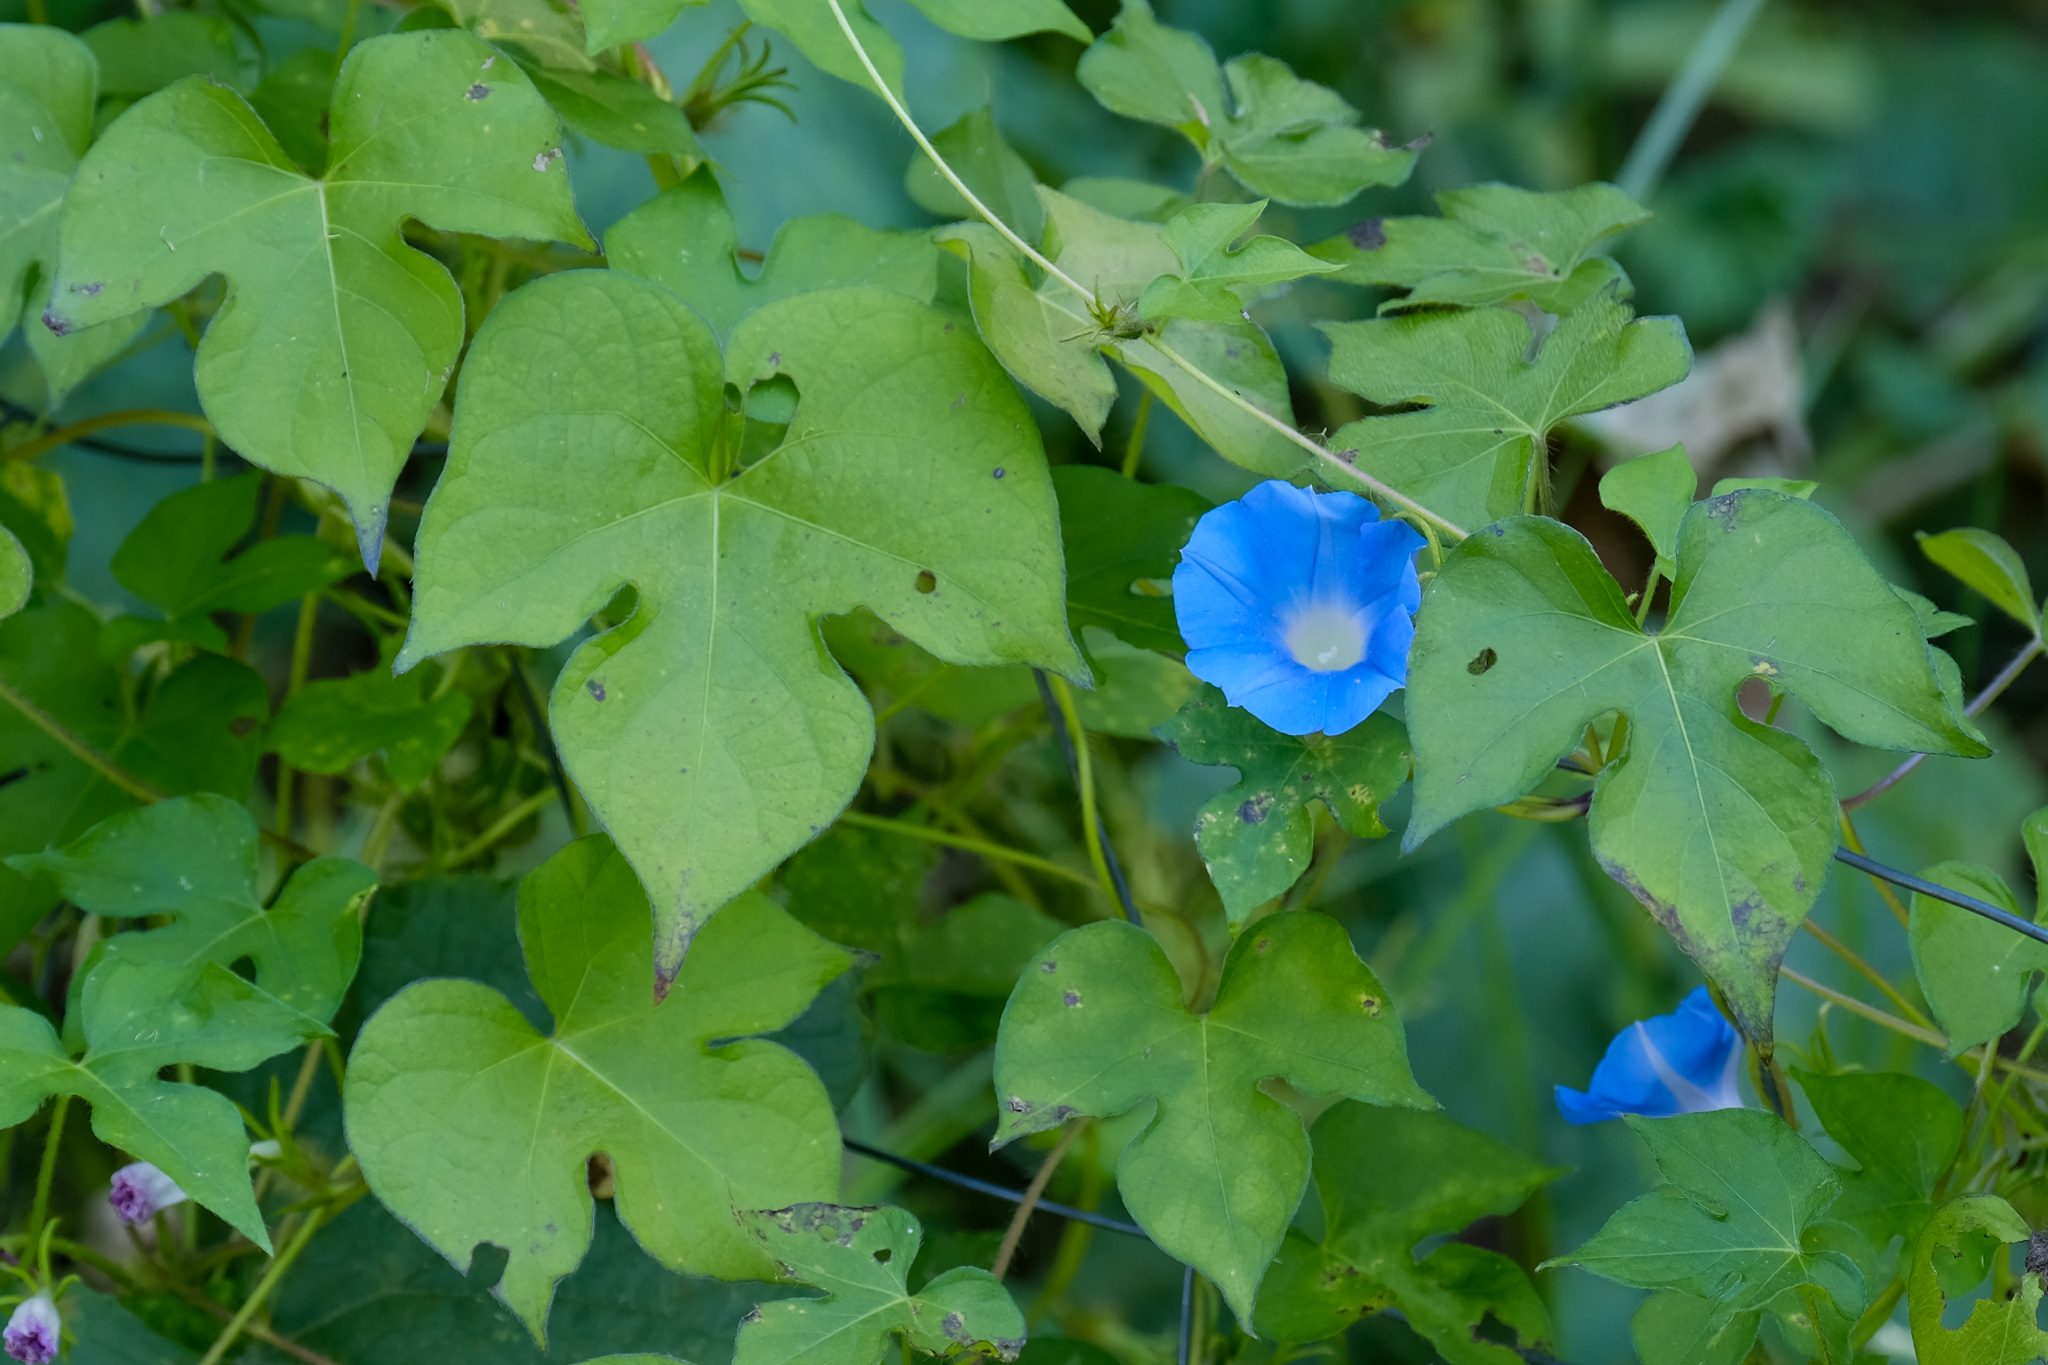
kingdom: Plantae
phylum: Tracheophyta
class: Magnoliopsida
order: Solanales
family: Convolvulaceae
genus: Ipomoea
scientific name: Ipomoea hederacea
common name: Ivy-leaved morning-glory
